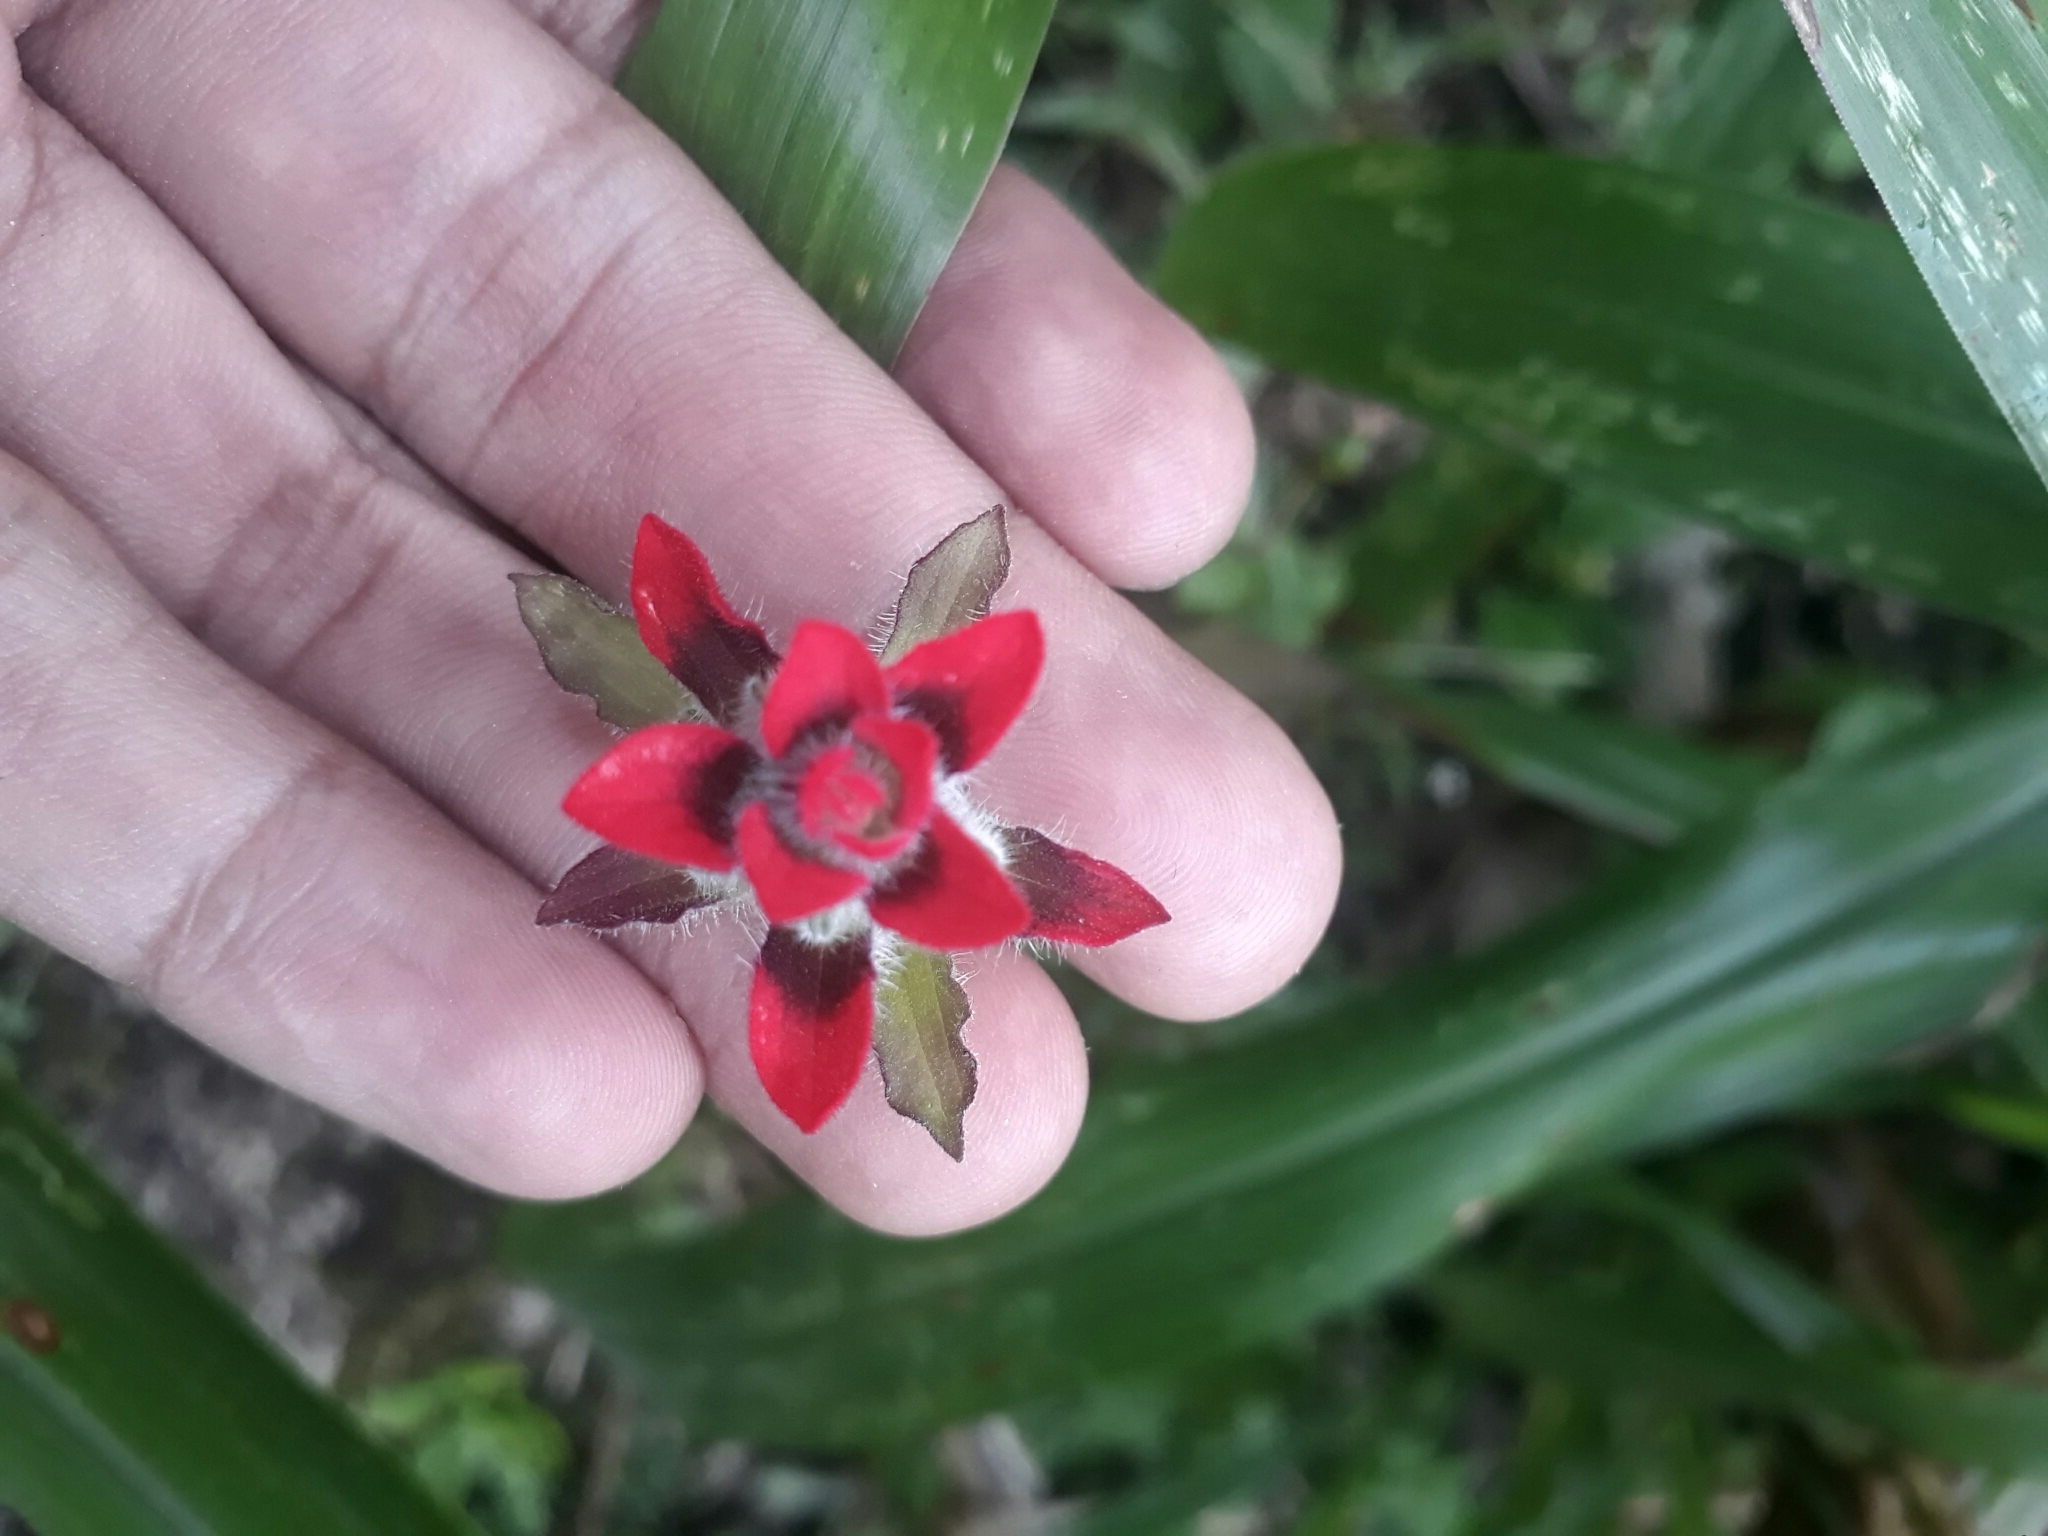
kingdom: Plantae
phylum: Tracheophyta
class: Magnoliopsida
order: Lamiales
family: Orobanchaceae
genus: Castilleja
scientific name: Castilleja arvensis
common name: Indian paintbrush
